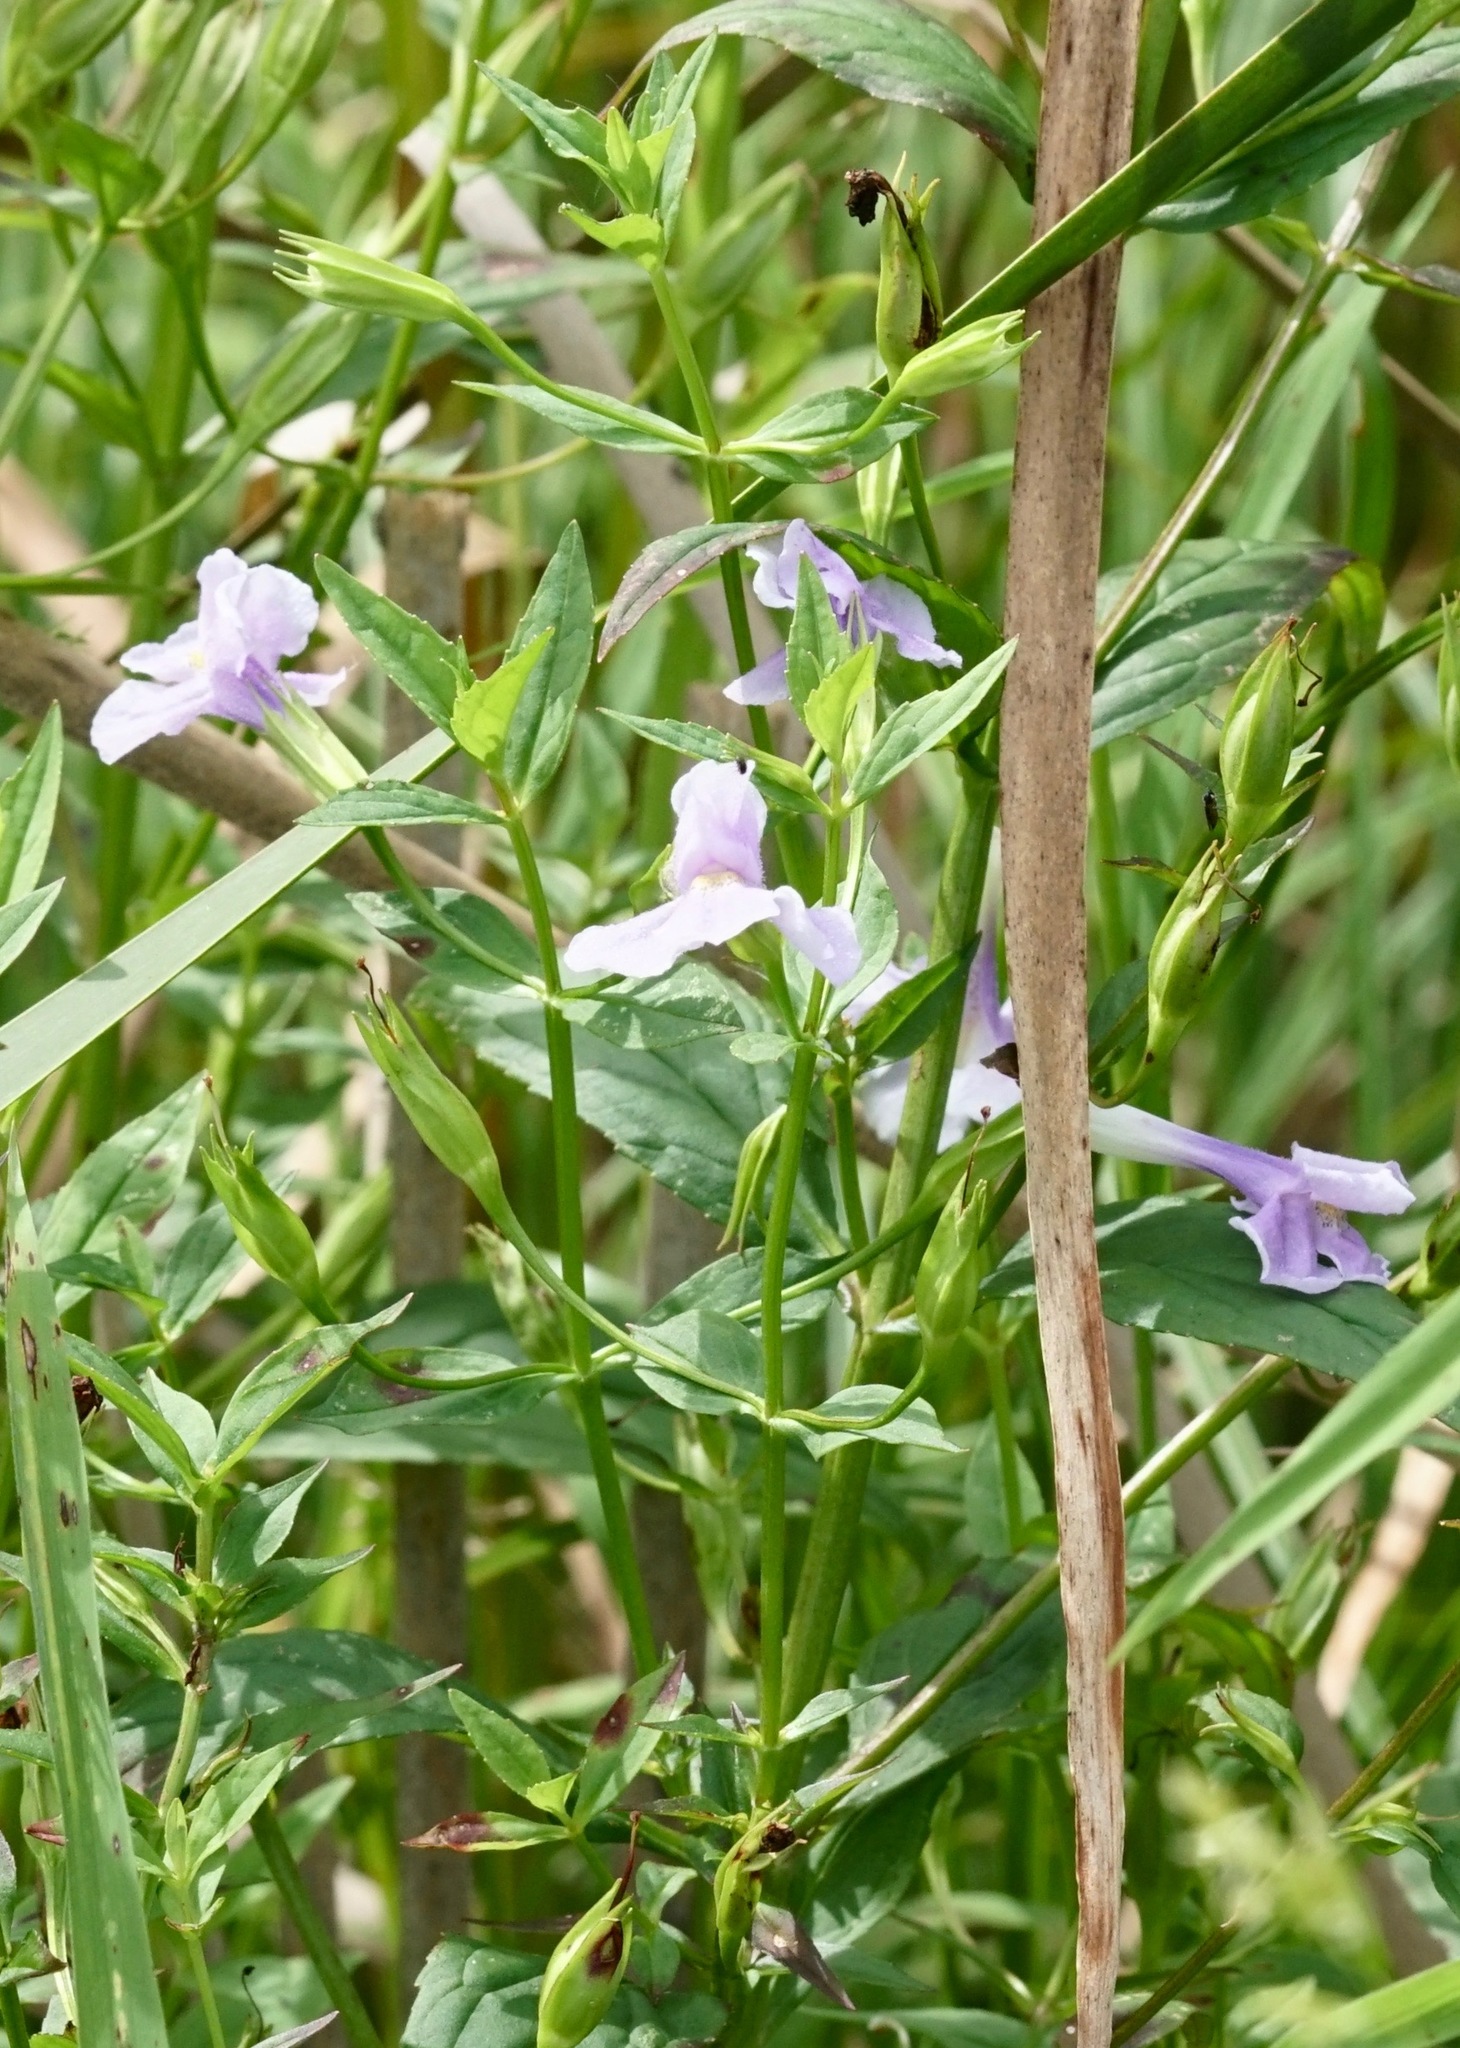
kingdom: Plantae
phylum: Tracheophyta
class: Magnoliopsida
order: Lamiales
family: Phrymaceae
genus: Mimulus
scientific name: Mimulus ringens
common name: Allegheny monkeyflower
